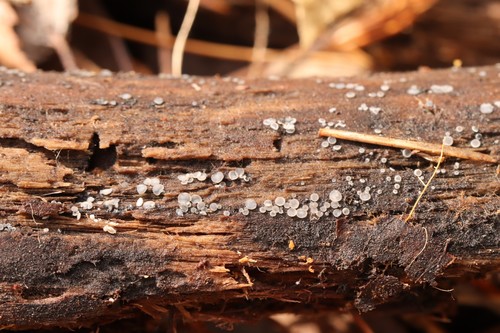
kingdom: Fungi
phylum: Ascomycota
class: Leotiomycetes
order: Helotiales
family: Mollisiaceae
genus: Mollisia
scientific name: Mollisia
